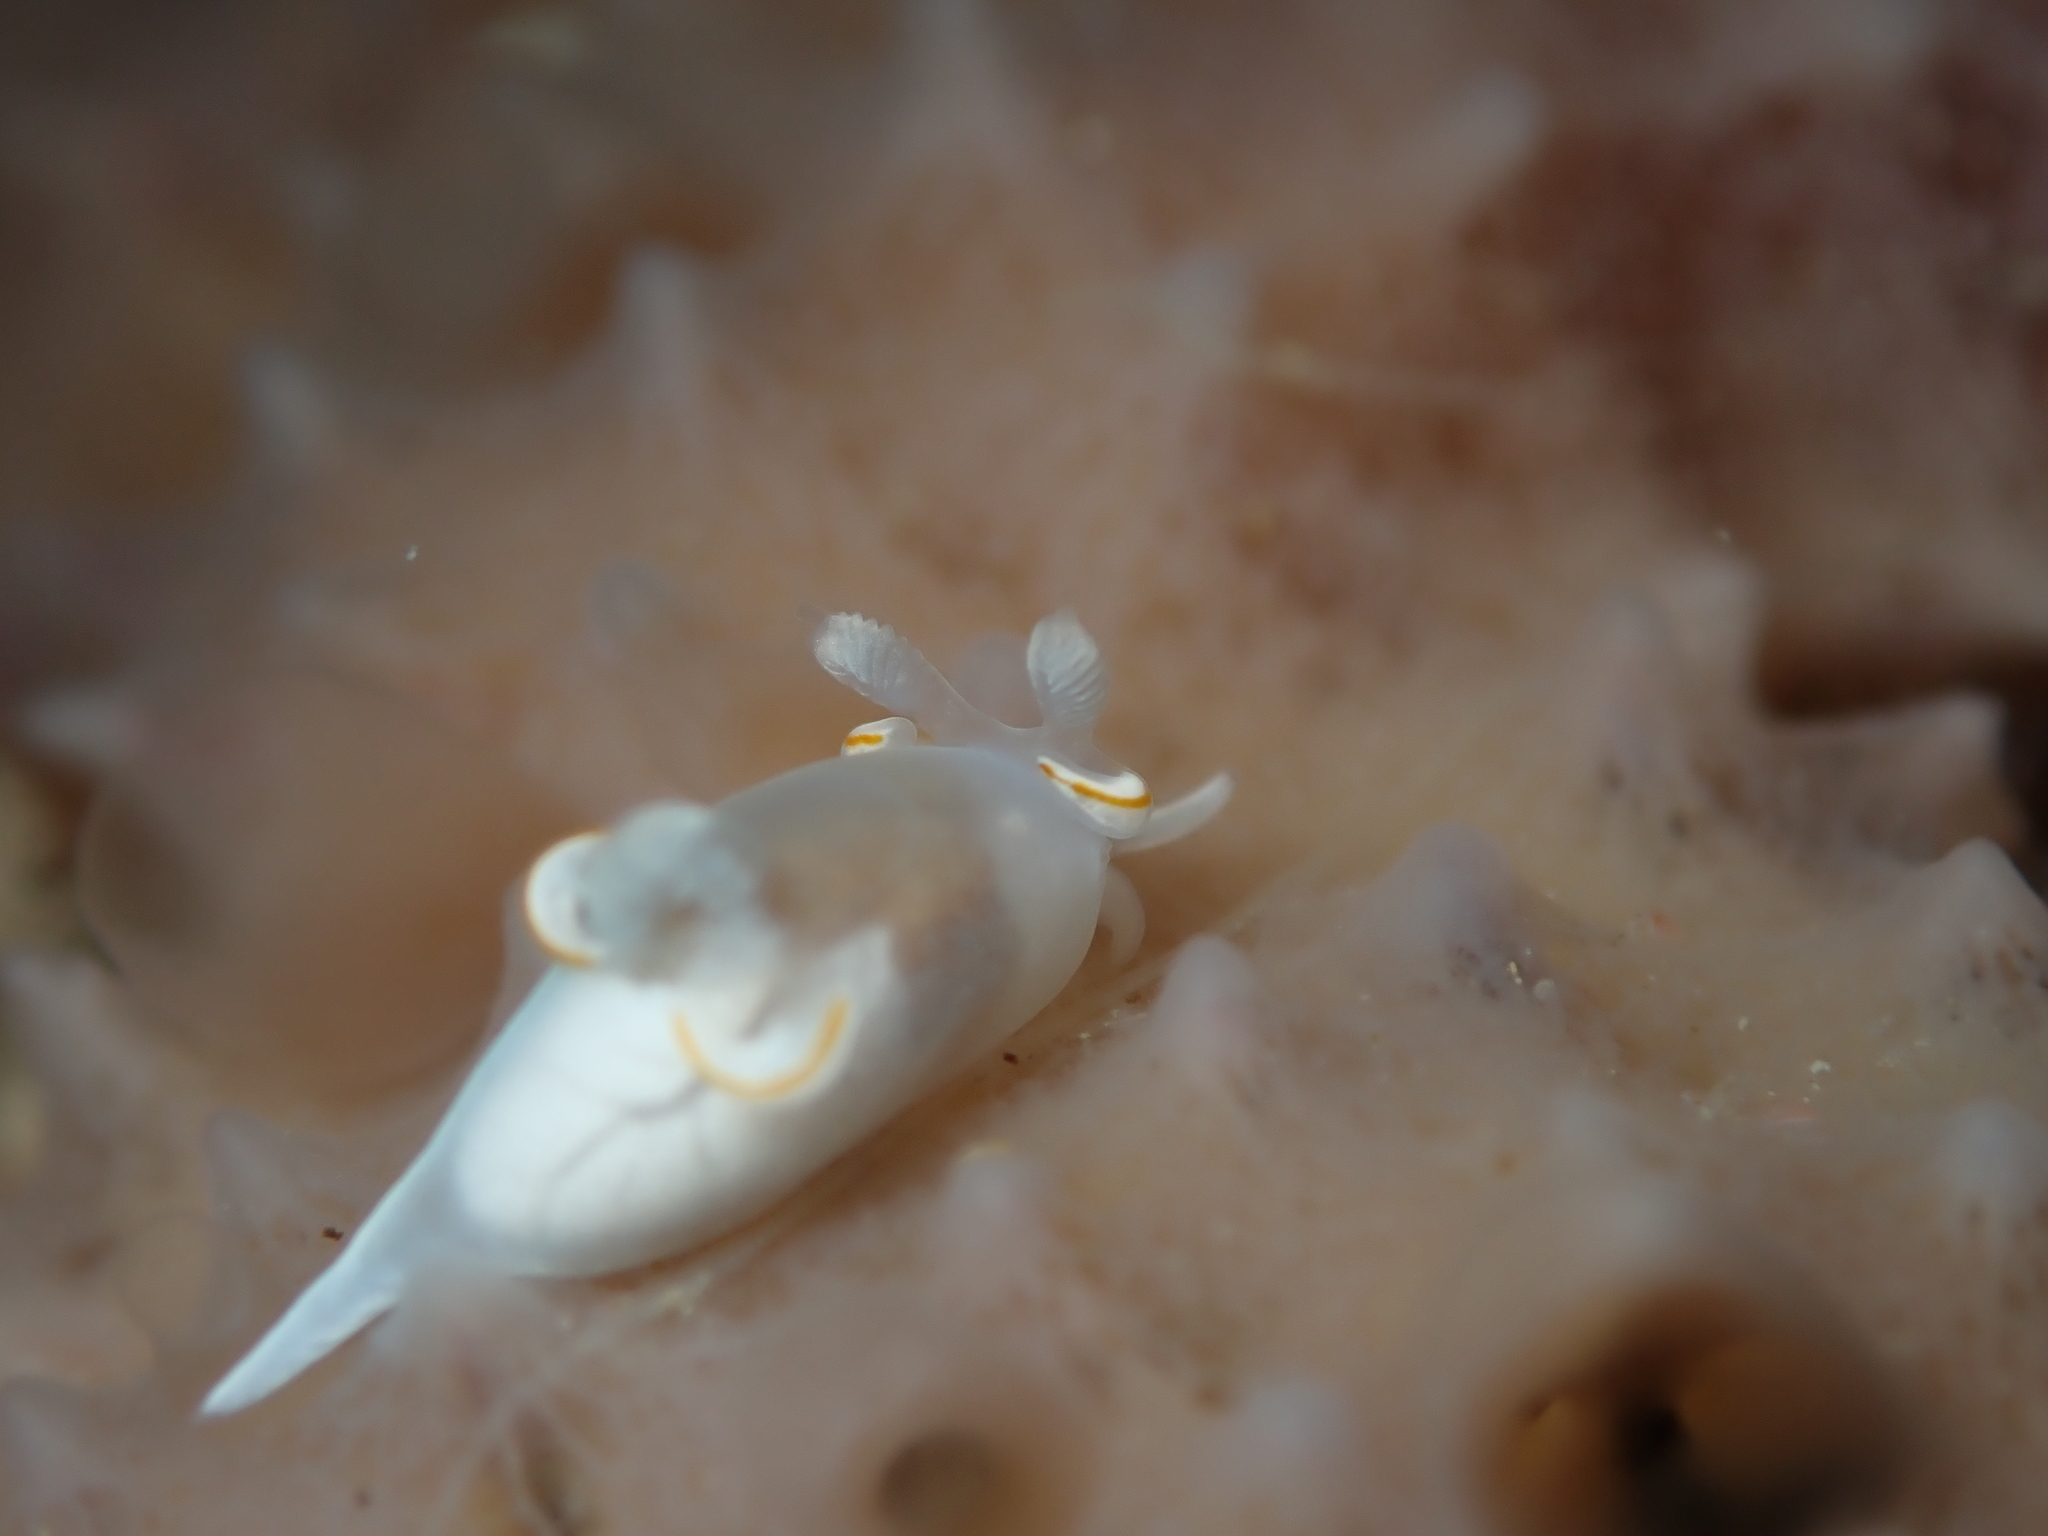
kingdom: Animalia
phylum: Mollusca
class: Gastropoda
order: Nudibranchia
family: Goniodorididae
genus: Trapania
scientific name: Trapania rudmani
